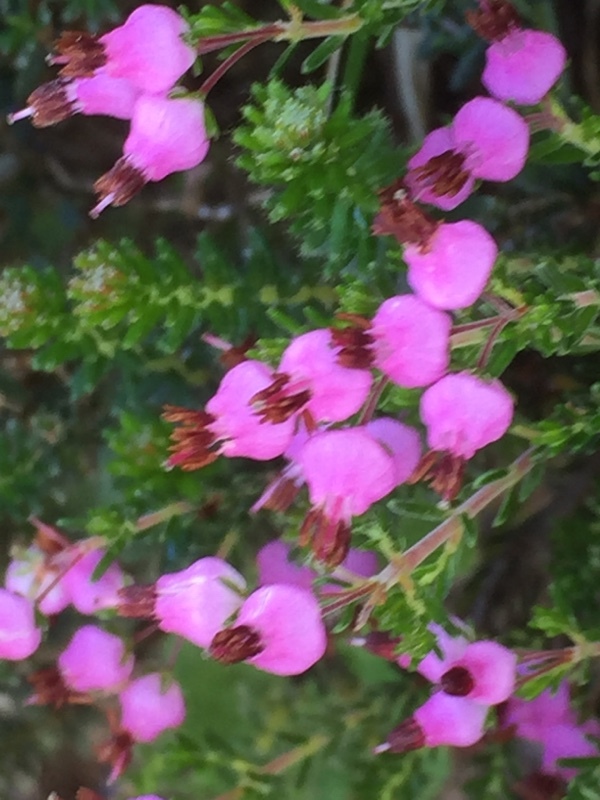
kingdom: Plantae
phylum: Tracheophyta
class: Magnoliopsida
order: Ericales
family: Ericaceae
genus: Erica
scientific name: Erica umbellata
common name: Dwarf spanish heath
